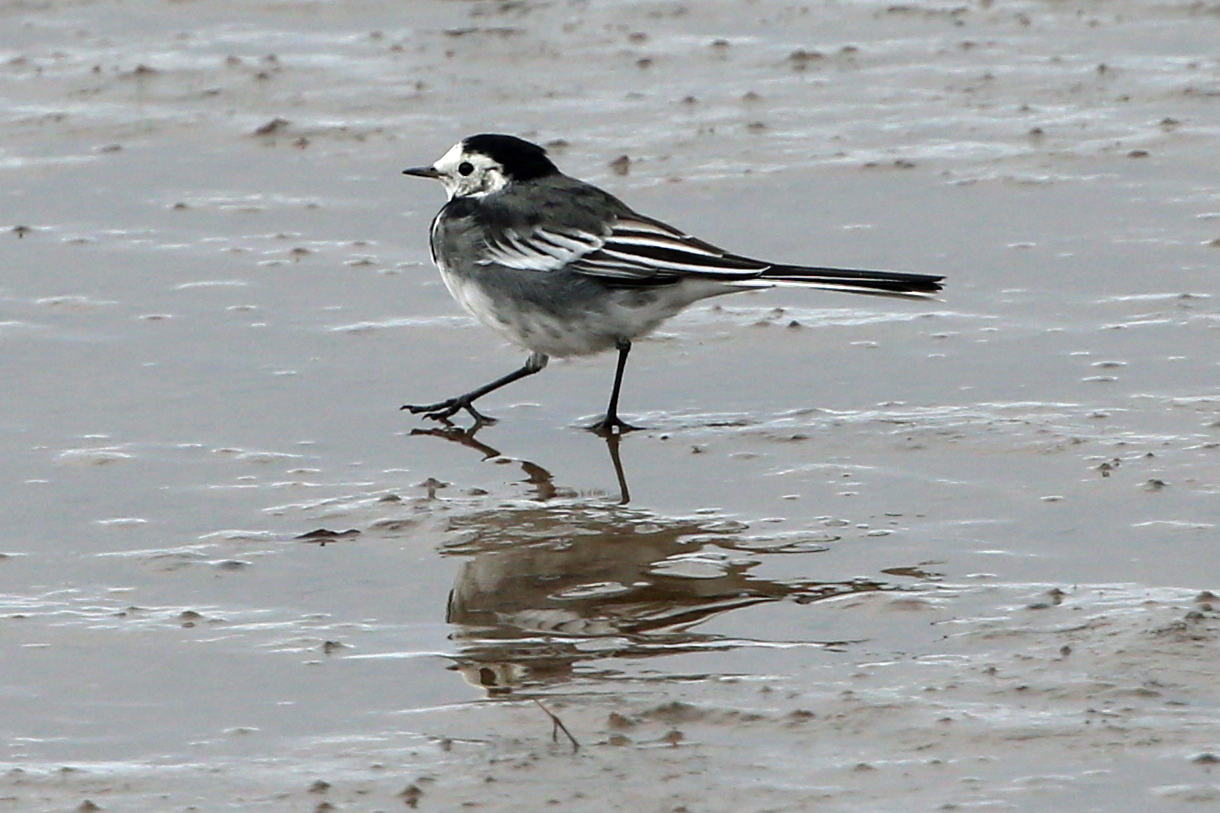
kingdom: Animalia
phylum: Chordata
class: Aves
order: Passeriformes
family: Motacillidae
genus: Motacilla
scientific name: Motacilla alba
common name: White wagtail
